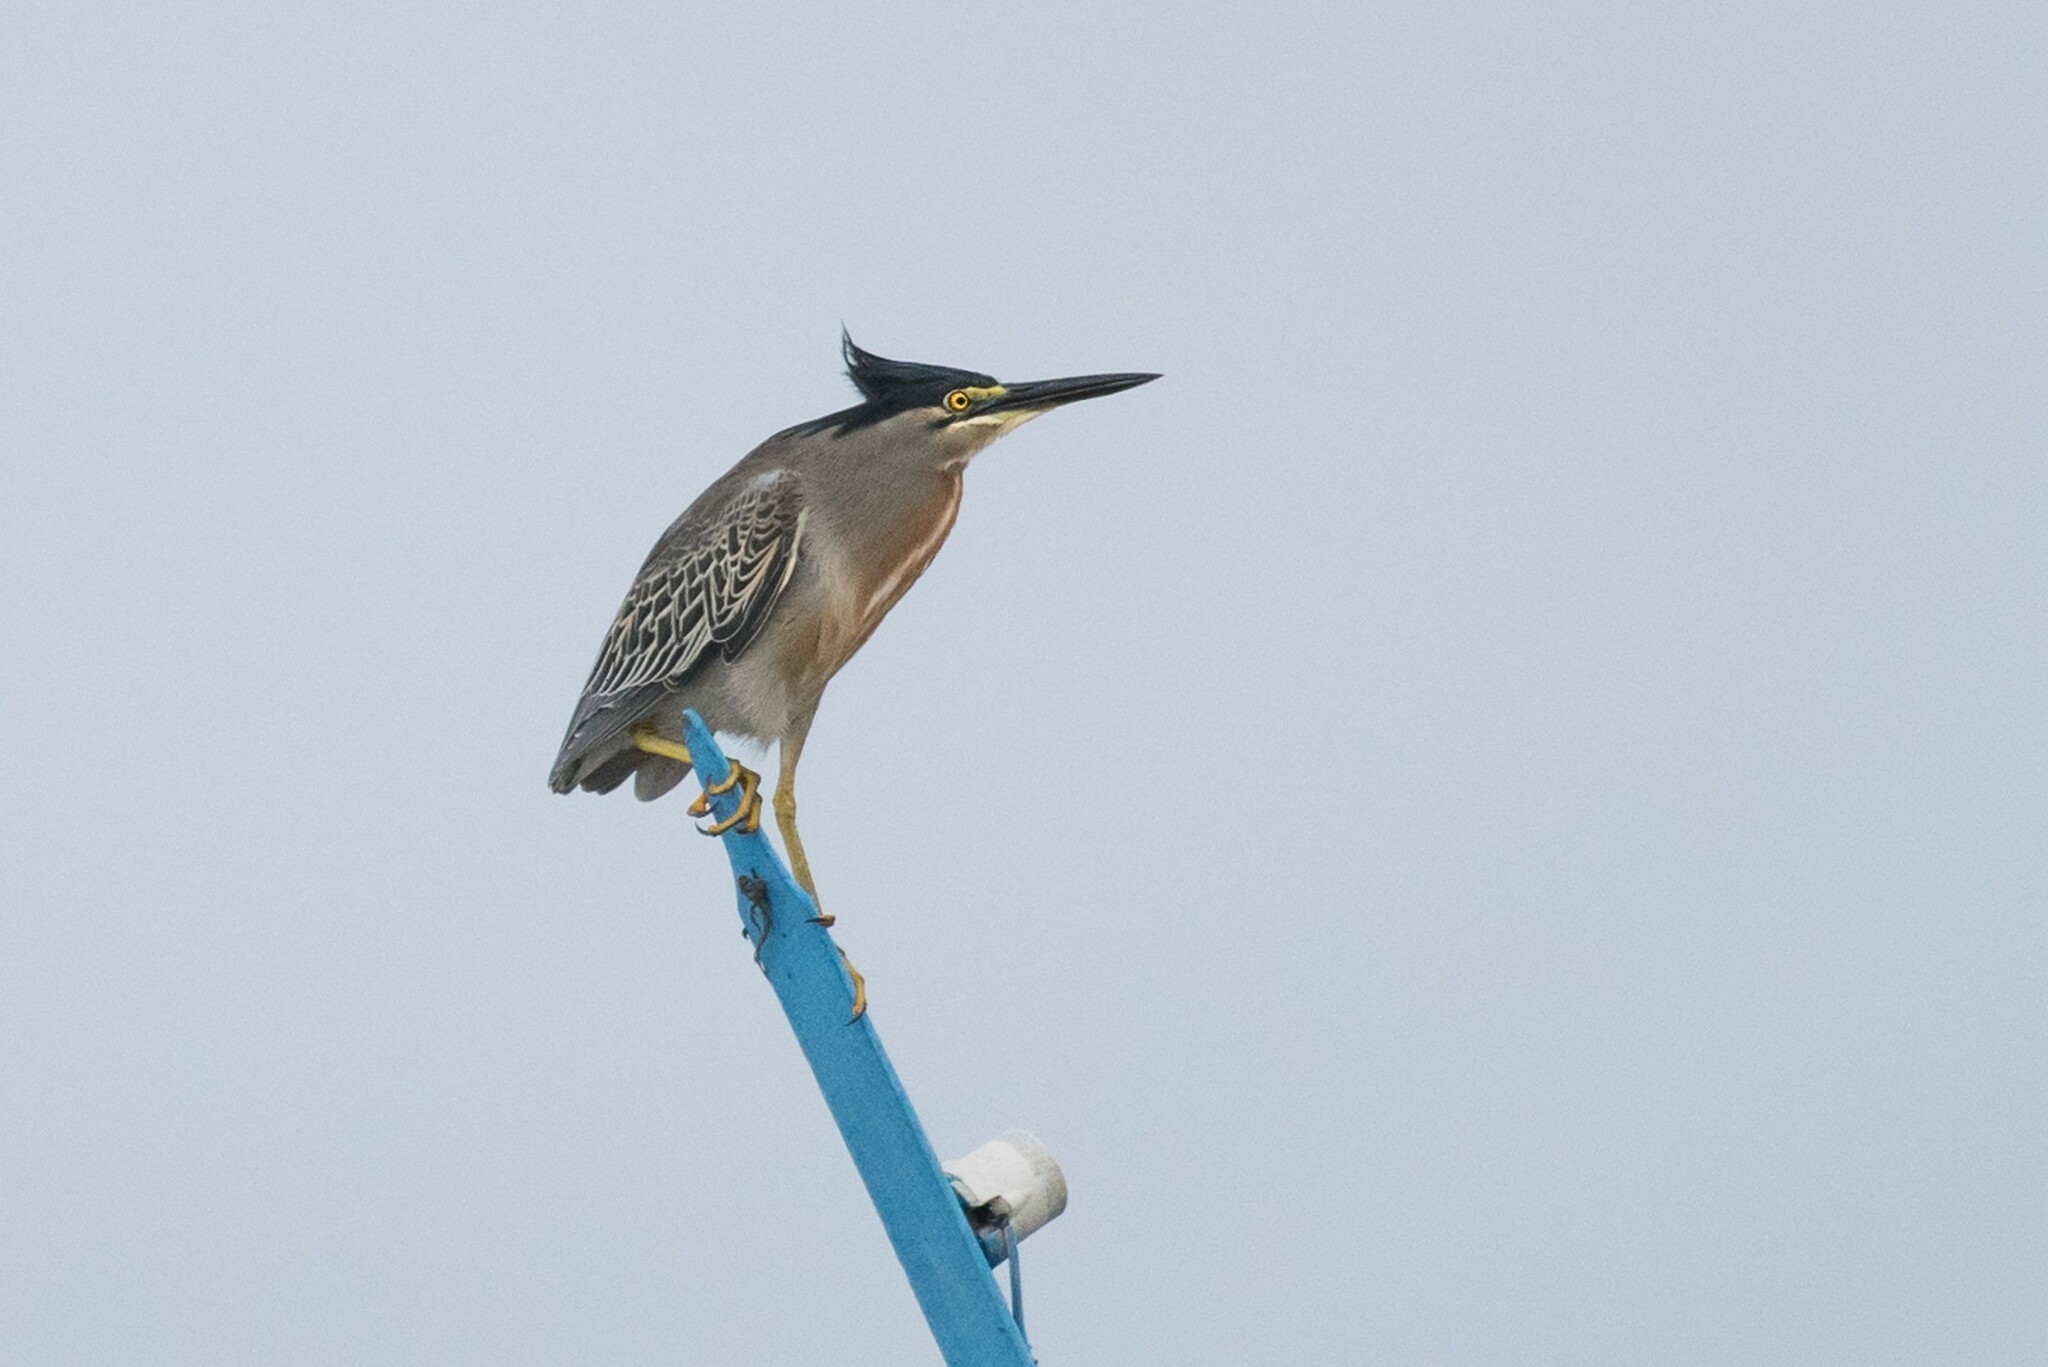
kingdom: Animalia
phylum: Chordata
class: Aves
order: Pelecaniformes
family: Ardeidae
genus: Butorides
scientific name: Butorides striata
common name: Striated heron
